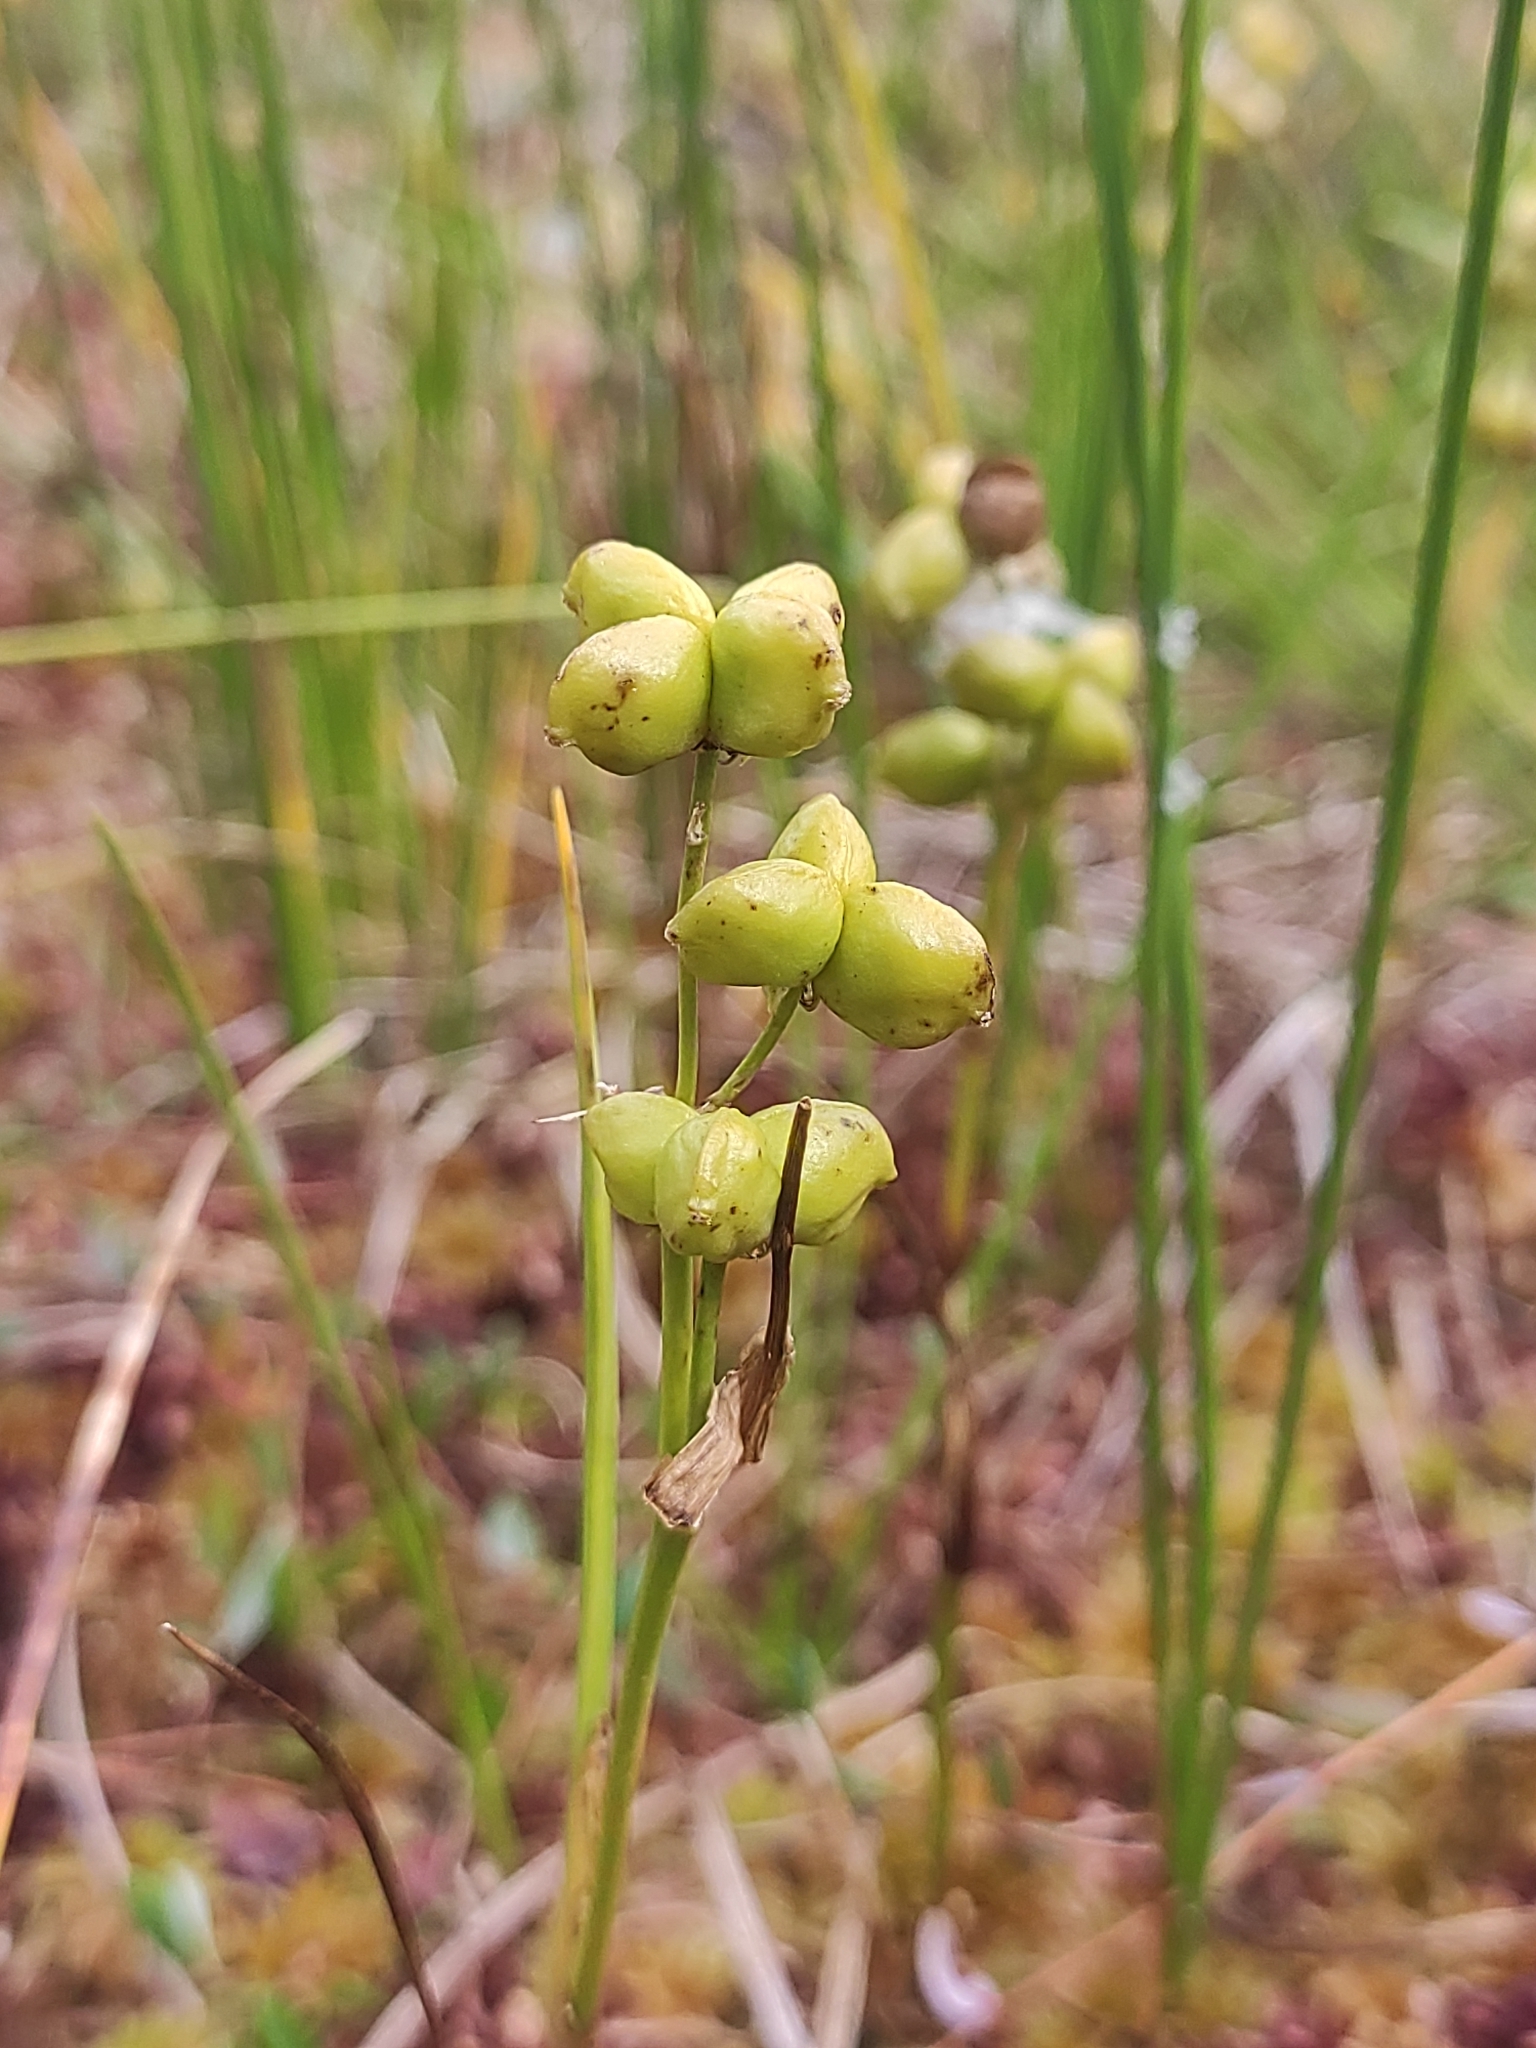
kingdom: Plantae
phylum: Tracheophyta
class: Liliopsida
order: Alismatales
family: Scheuchzeriaceae
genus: Scheuchzeria
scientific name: Scheuchzeria palustris
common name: Rannoch-rush
